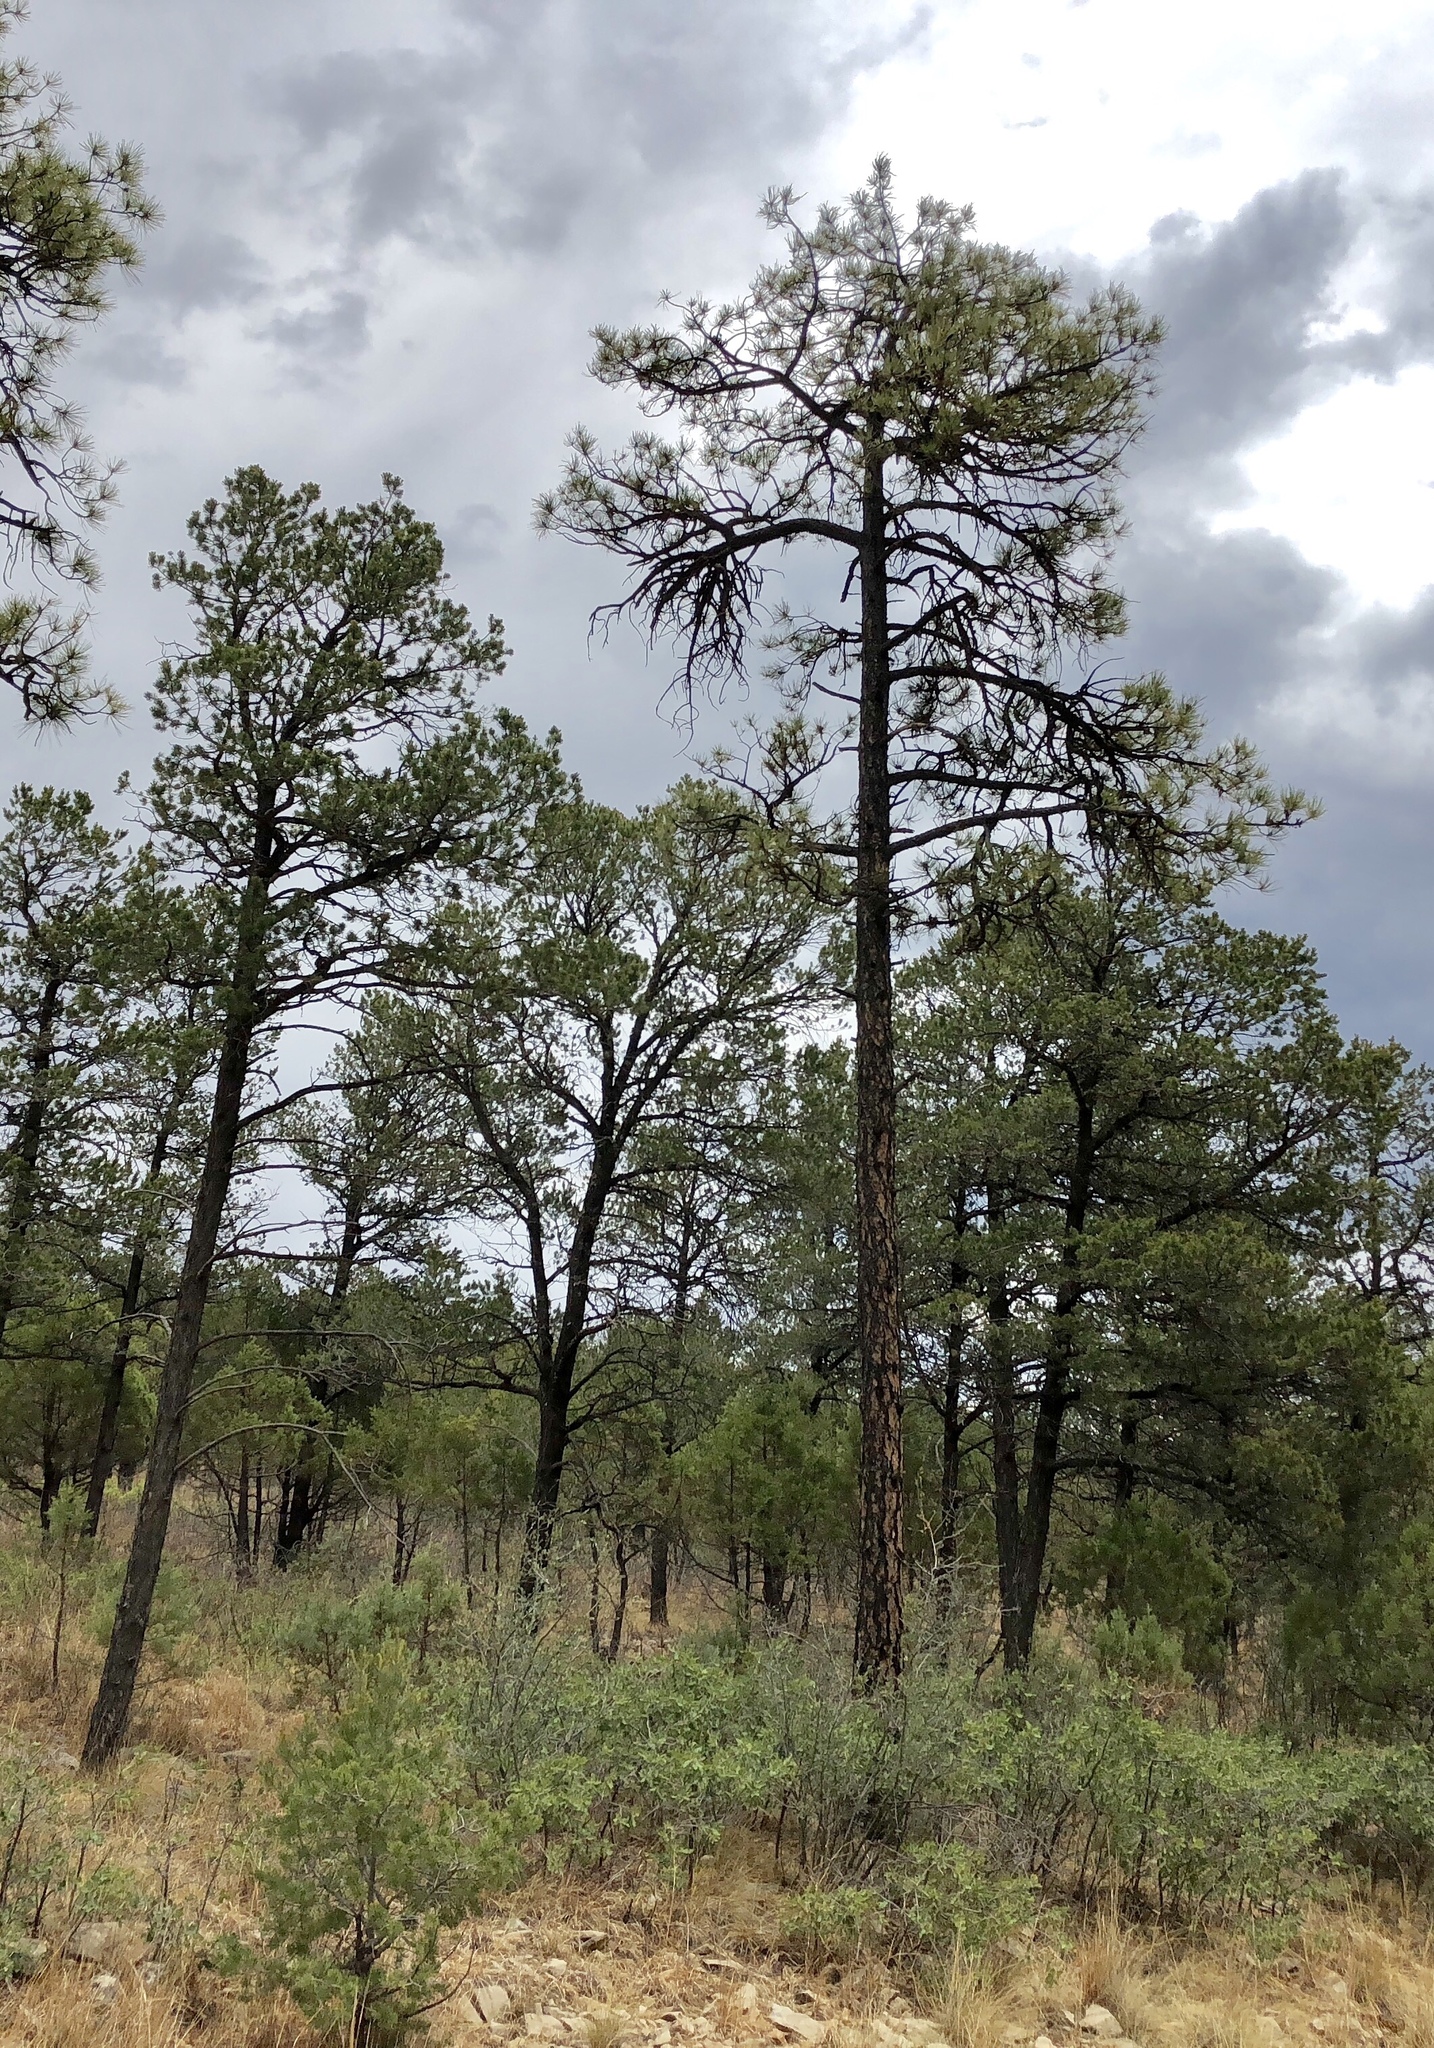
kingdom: Plantae
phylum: Tracheophyta
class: Pinopsida
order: Pinales
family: Pinaceae
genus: Pinus
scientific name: Pinus ponderosa
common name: Western yellow-pine
